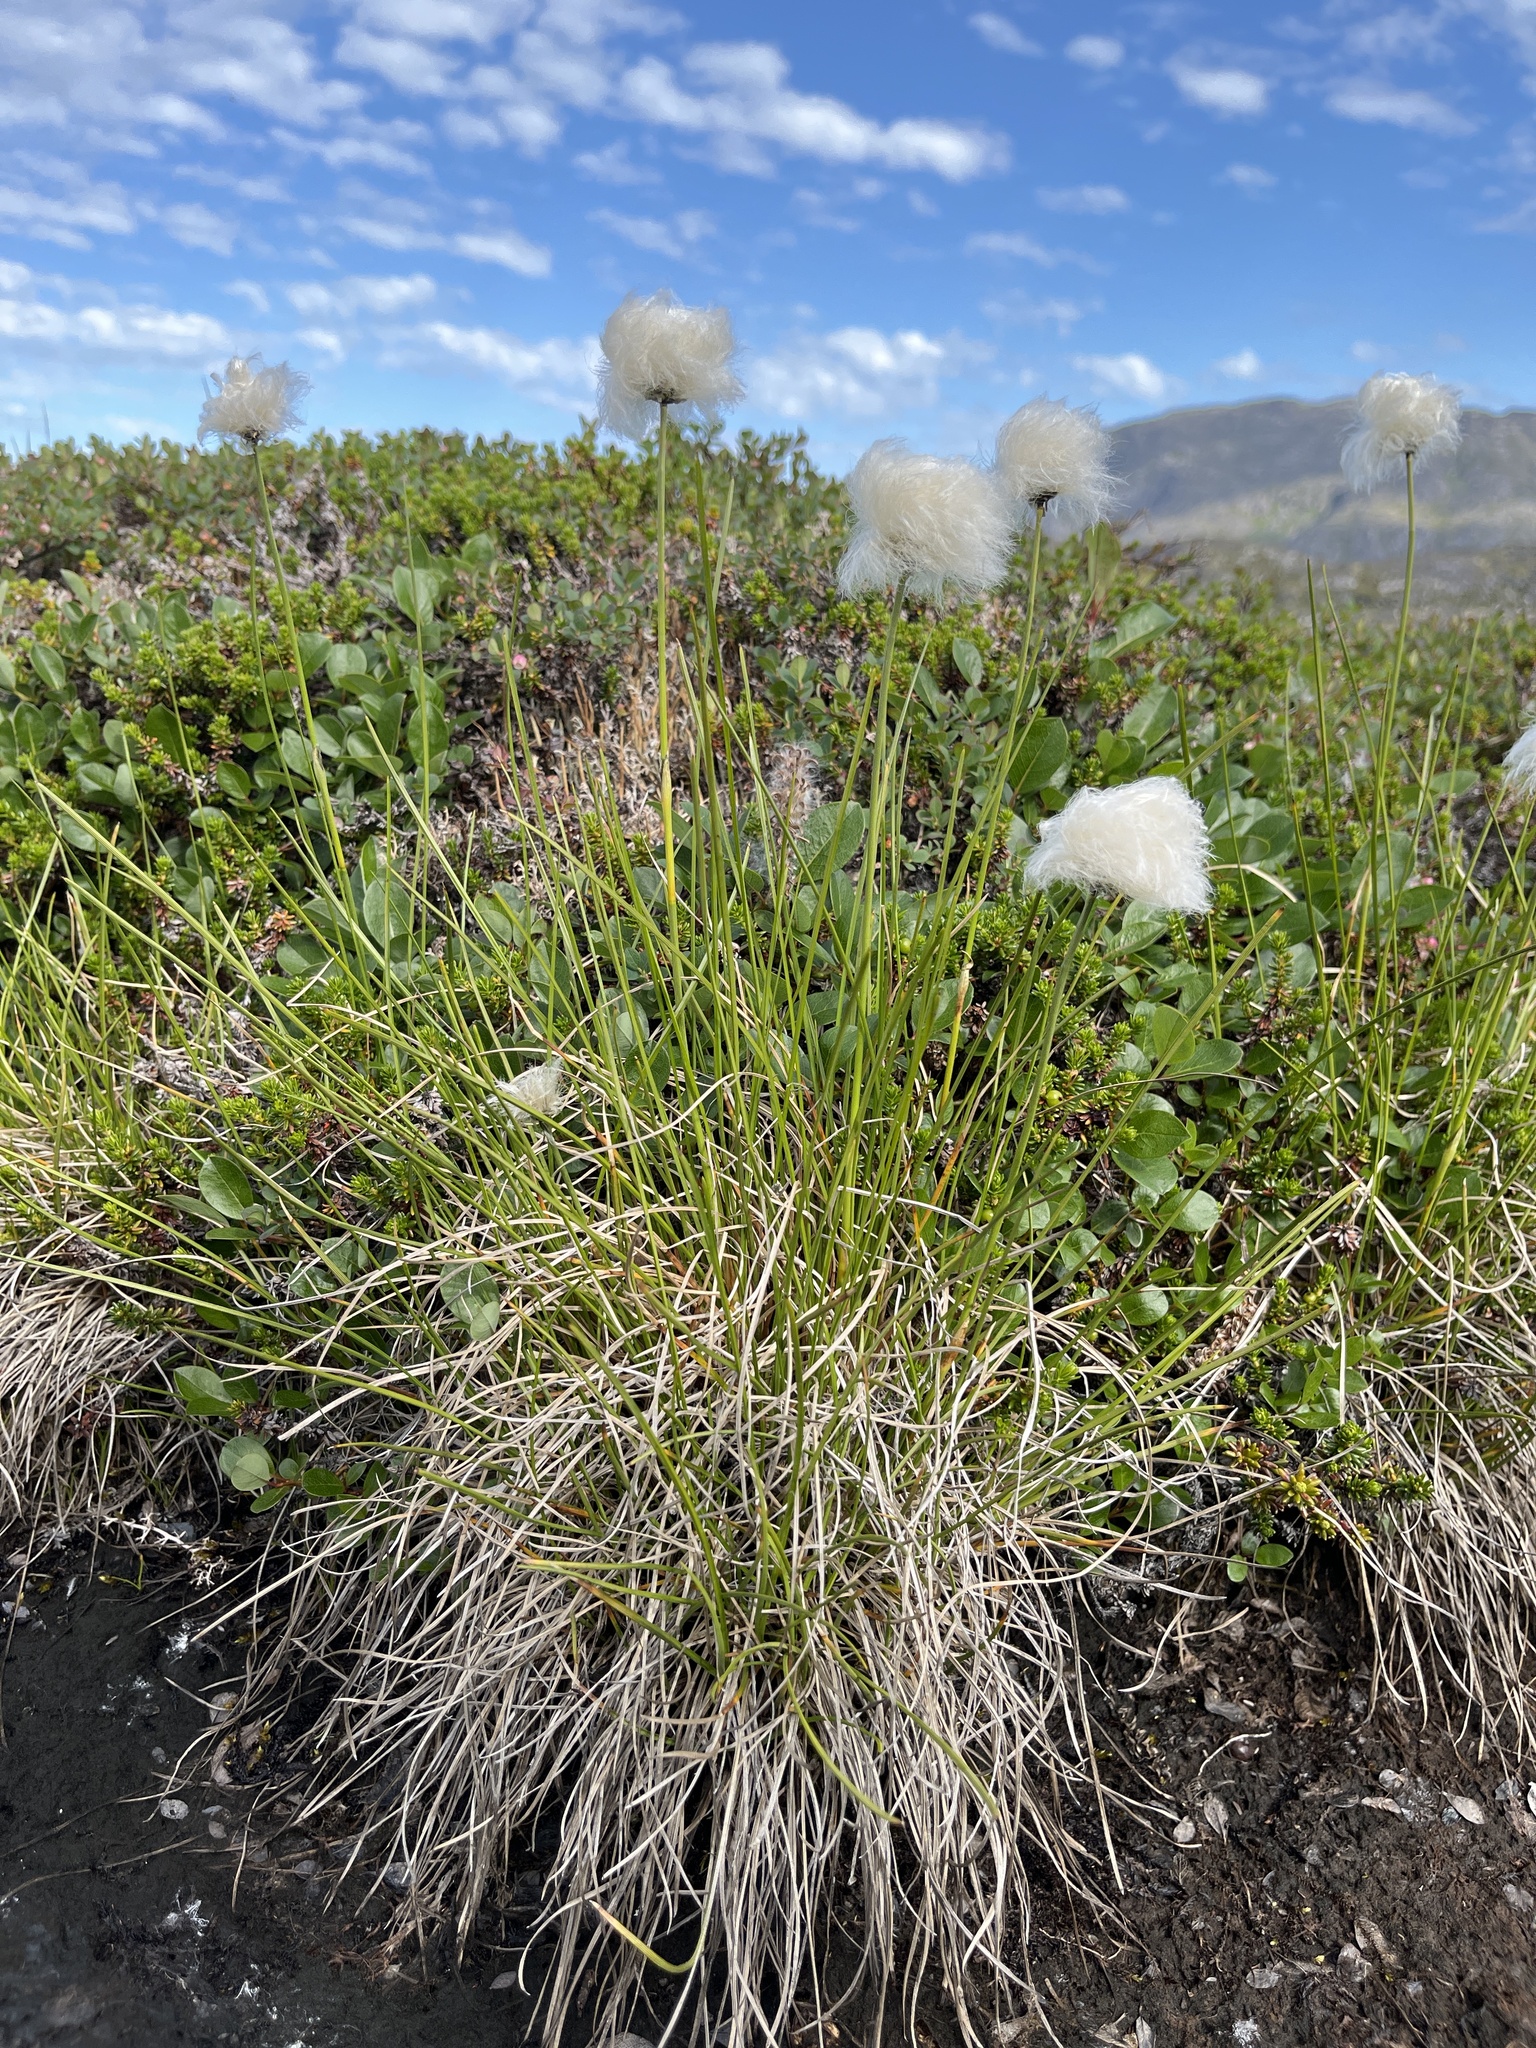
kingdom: Plantae
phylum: Tracheophyta
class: Liliopsida
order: Poales
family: Cyperaceae
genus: Eriophorum
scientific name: Eriophorum vaginatum
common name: Hare's-tail cottongrass
